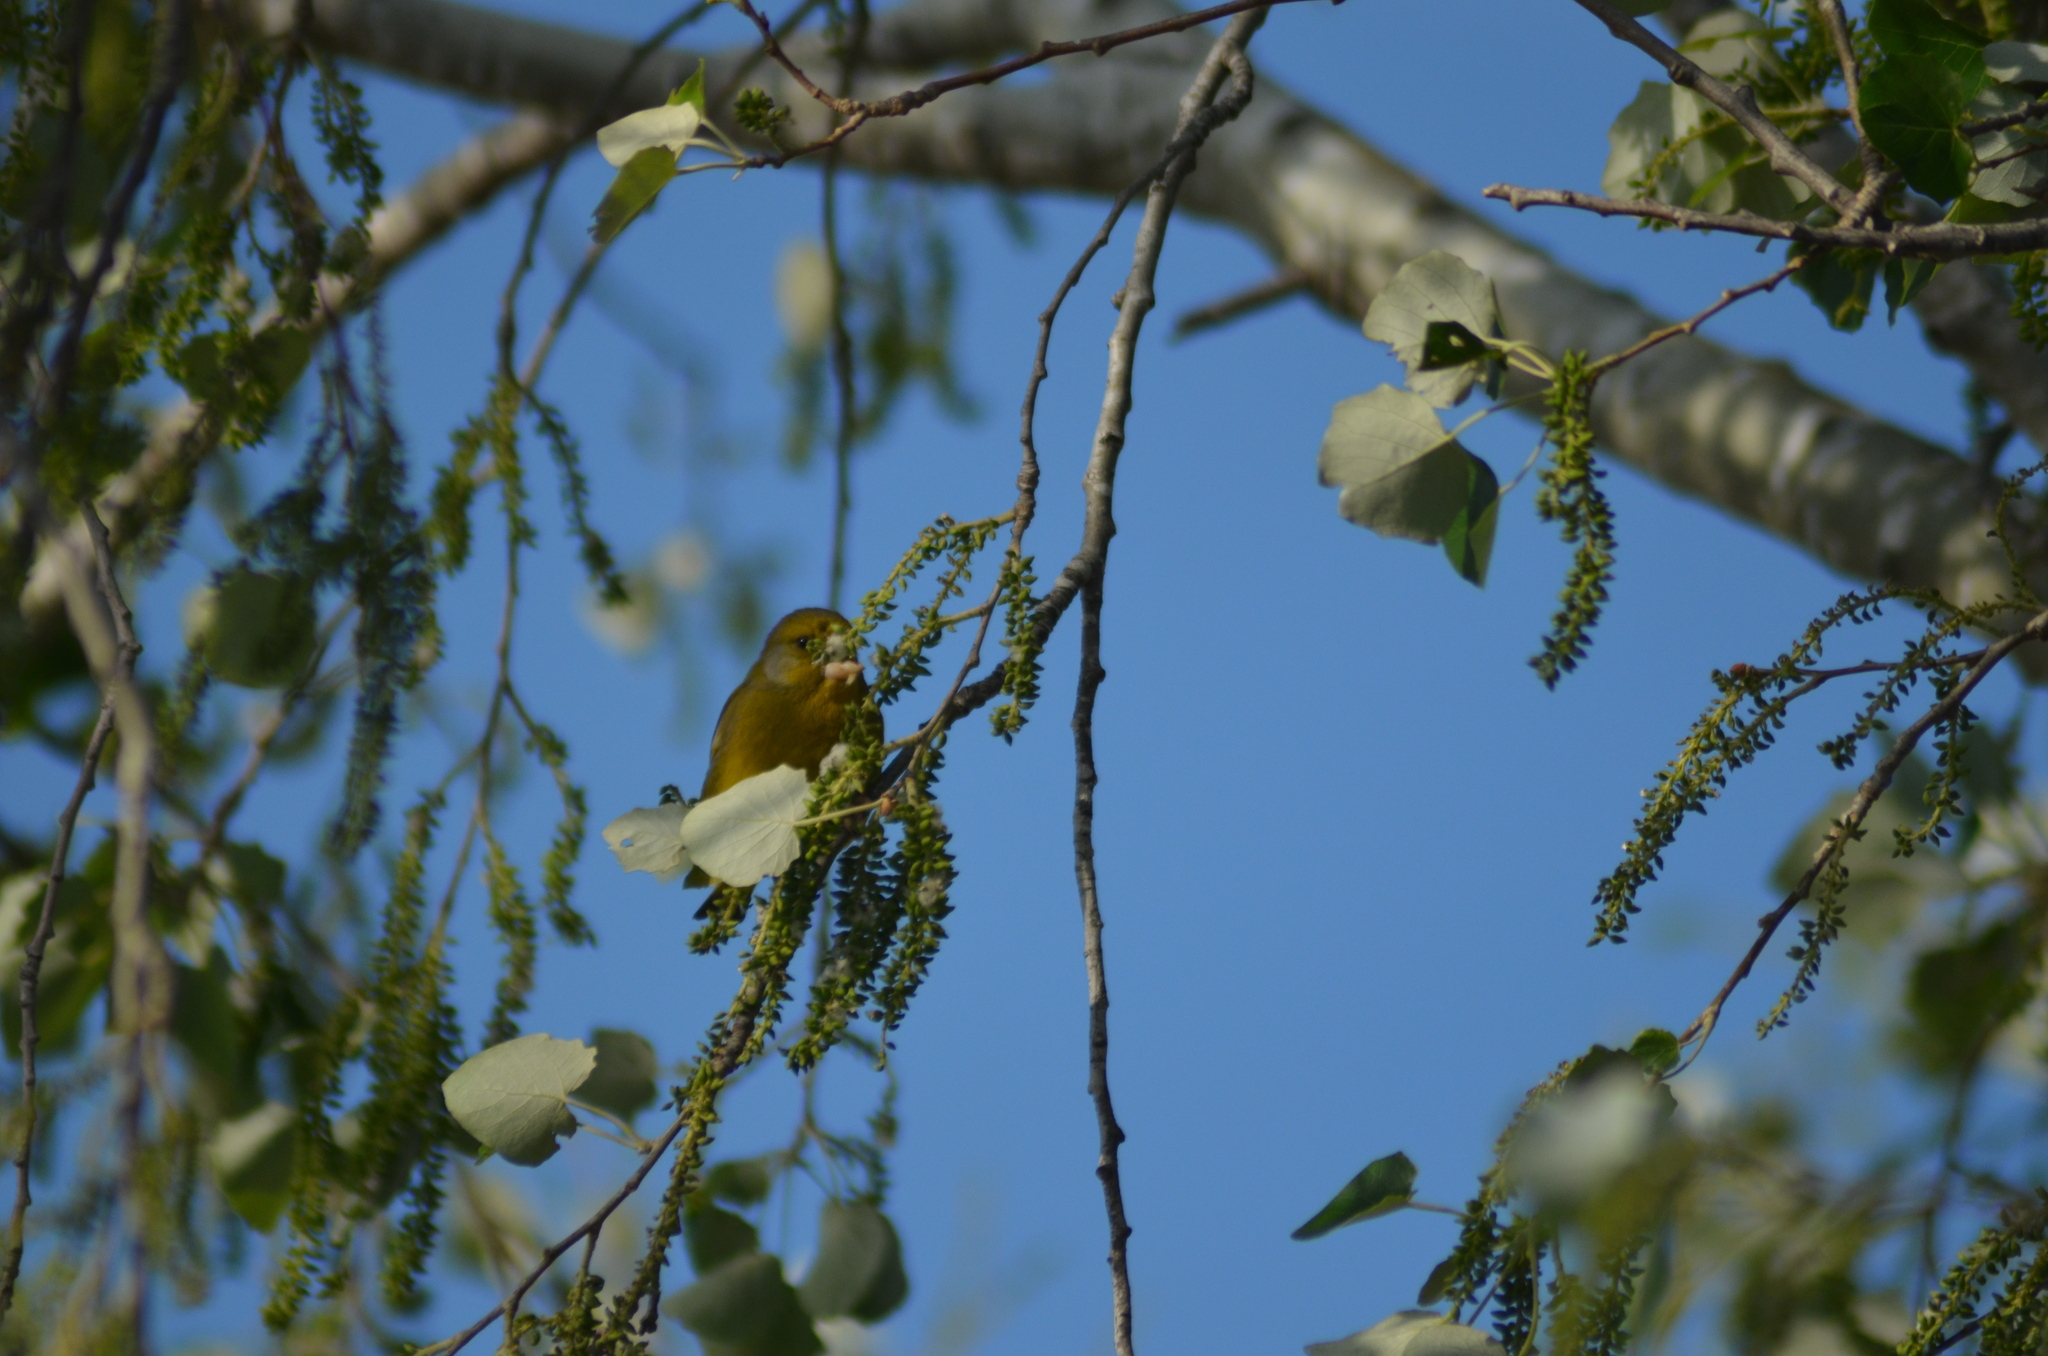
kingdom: Plantae
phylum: Tracheophyta
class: Liliopsida
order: Poales
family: Poaceae
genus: Chloris
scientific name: Chloris chloris
